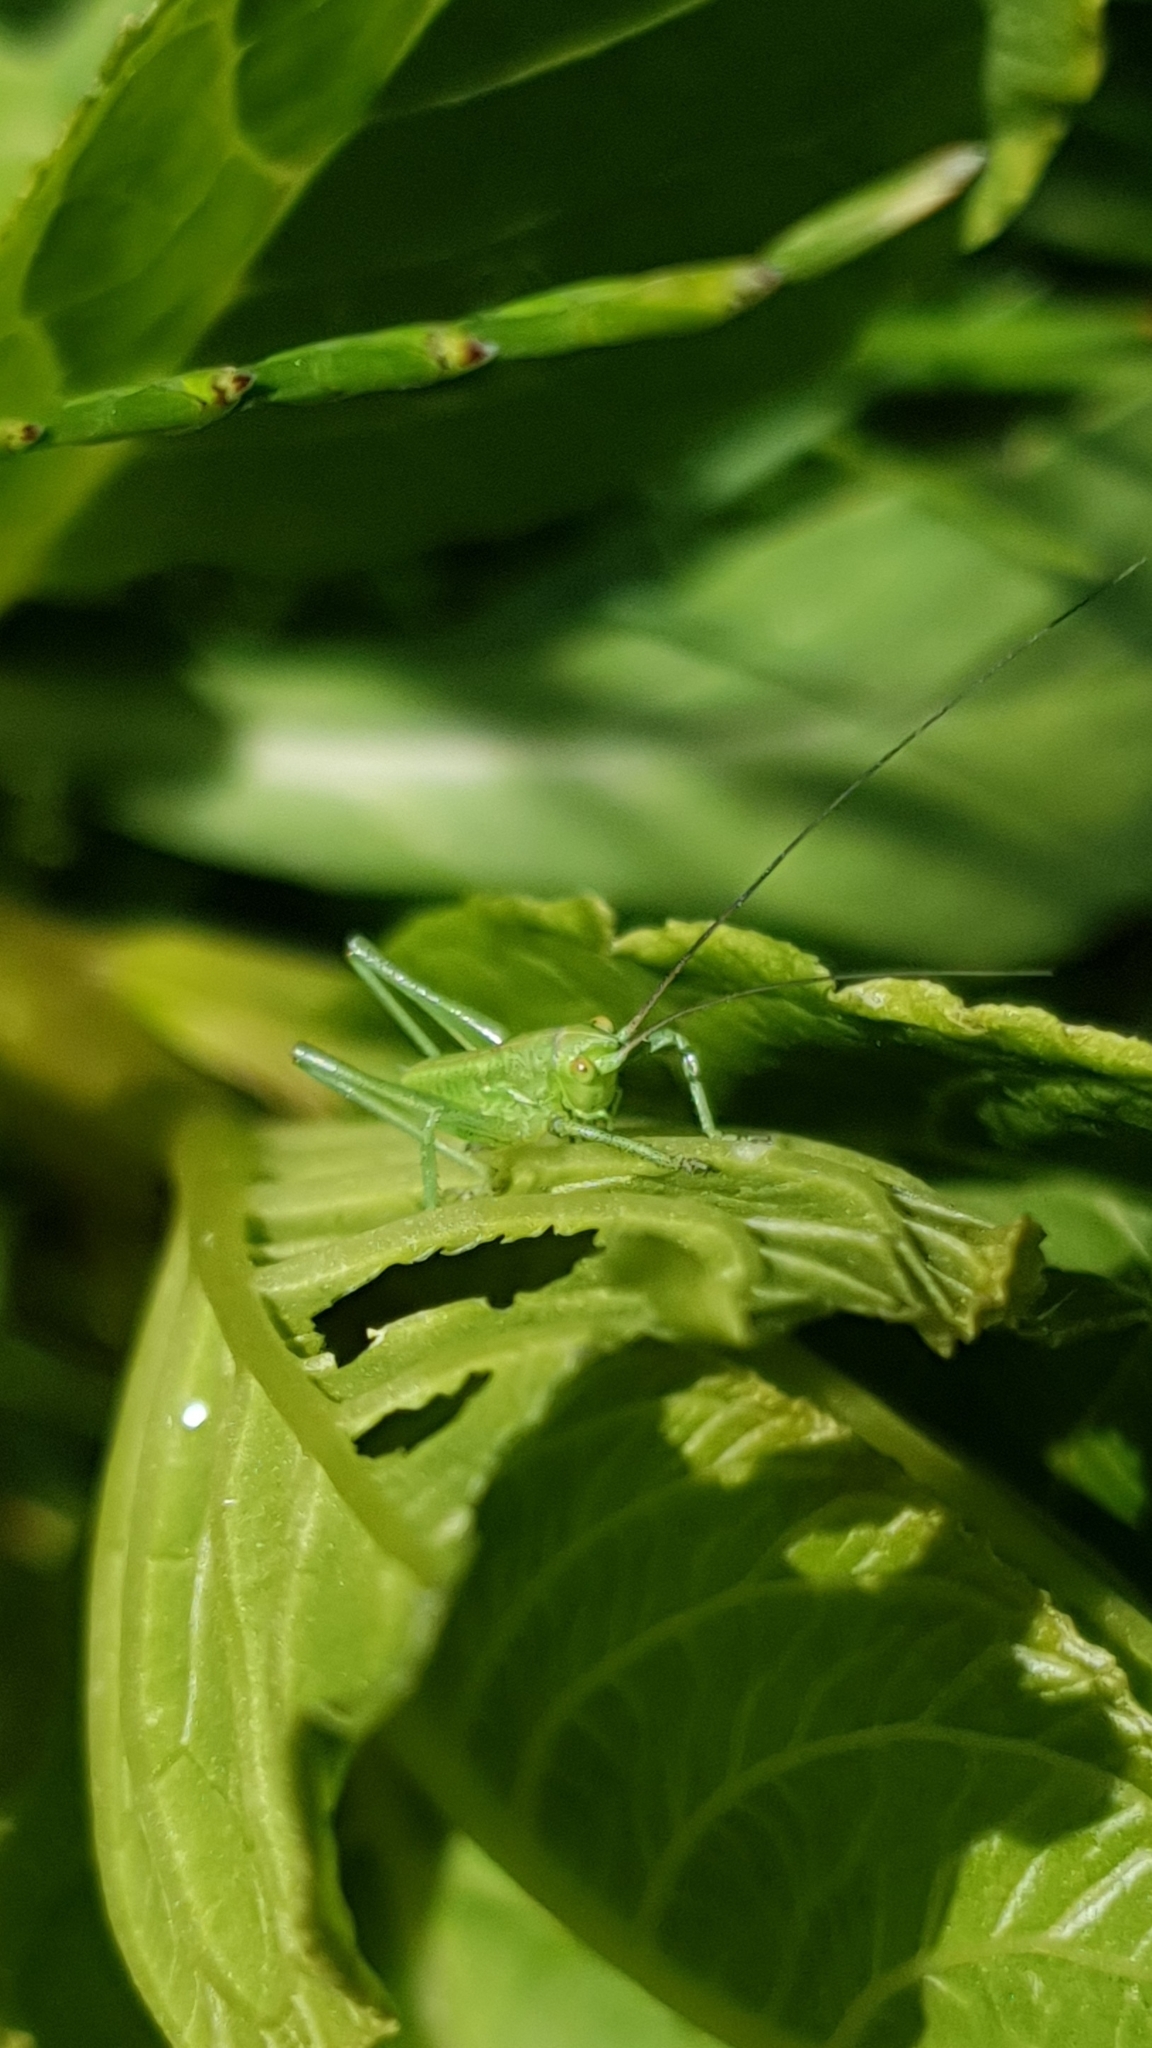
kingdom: Animalia
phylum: Arthropoda
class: Insecta
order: Orthoptera
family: Tettigoniidae
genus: Tettigonia
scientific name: Tettigonia viridissima
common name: Great green bush-cricket
